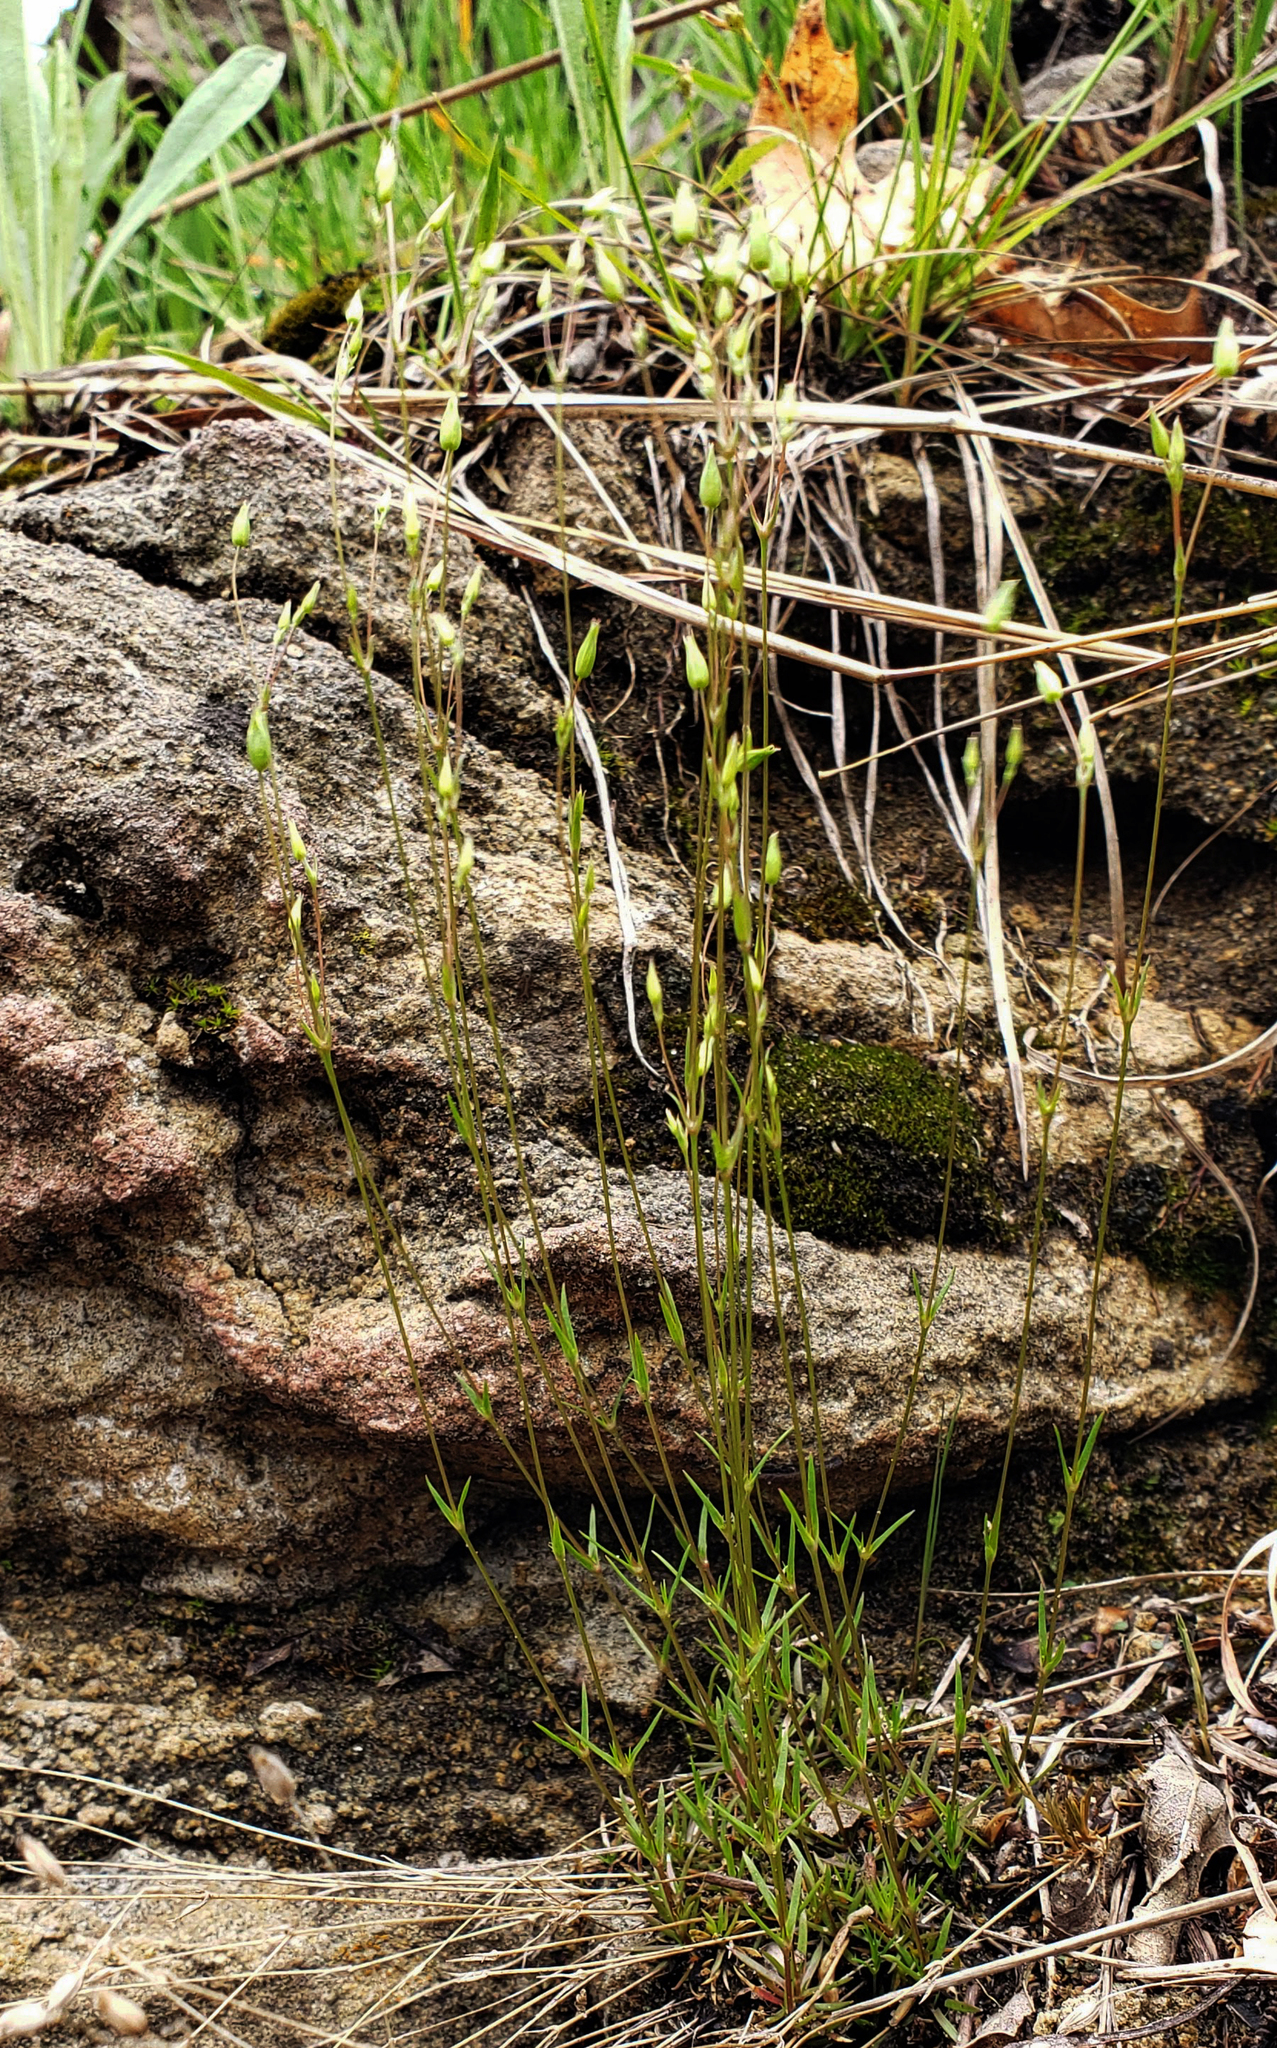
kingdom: Plantae
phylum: Tracheophyta
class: Magnoliopsida
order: Caryophyllales
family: Caryophyllaceae
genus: Sabulina
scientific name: Sabulina michauxii
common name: Michaux's stitchwort
